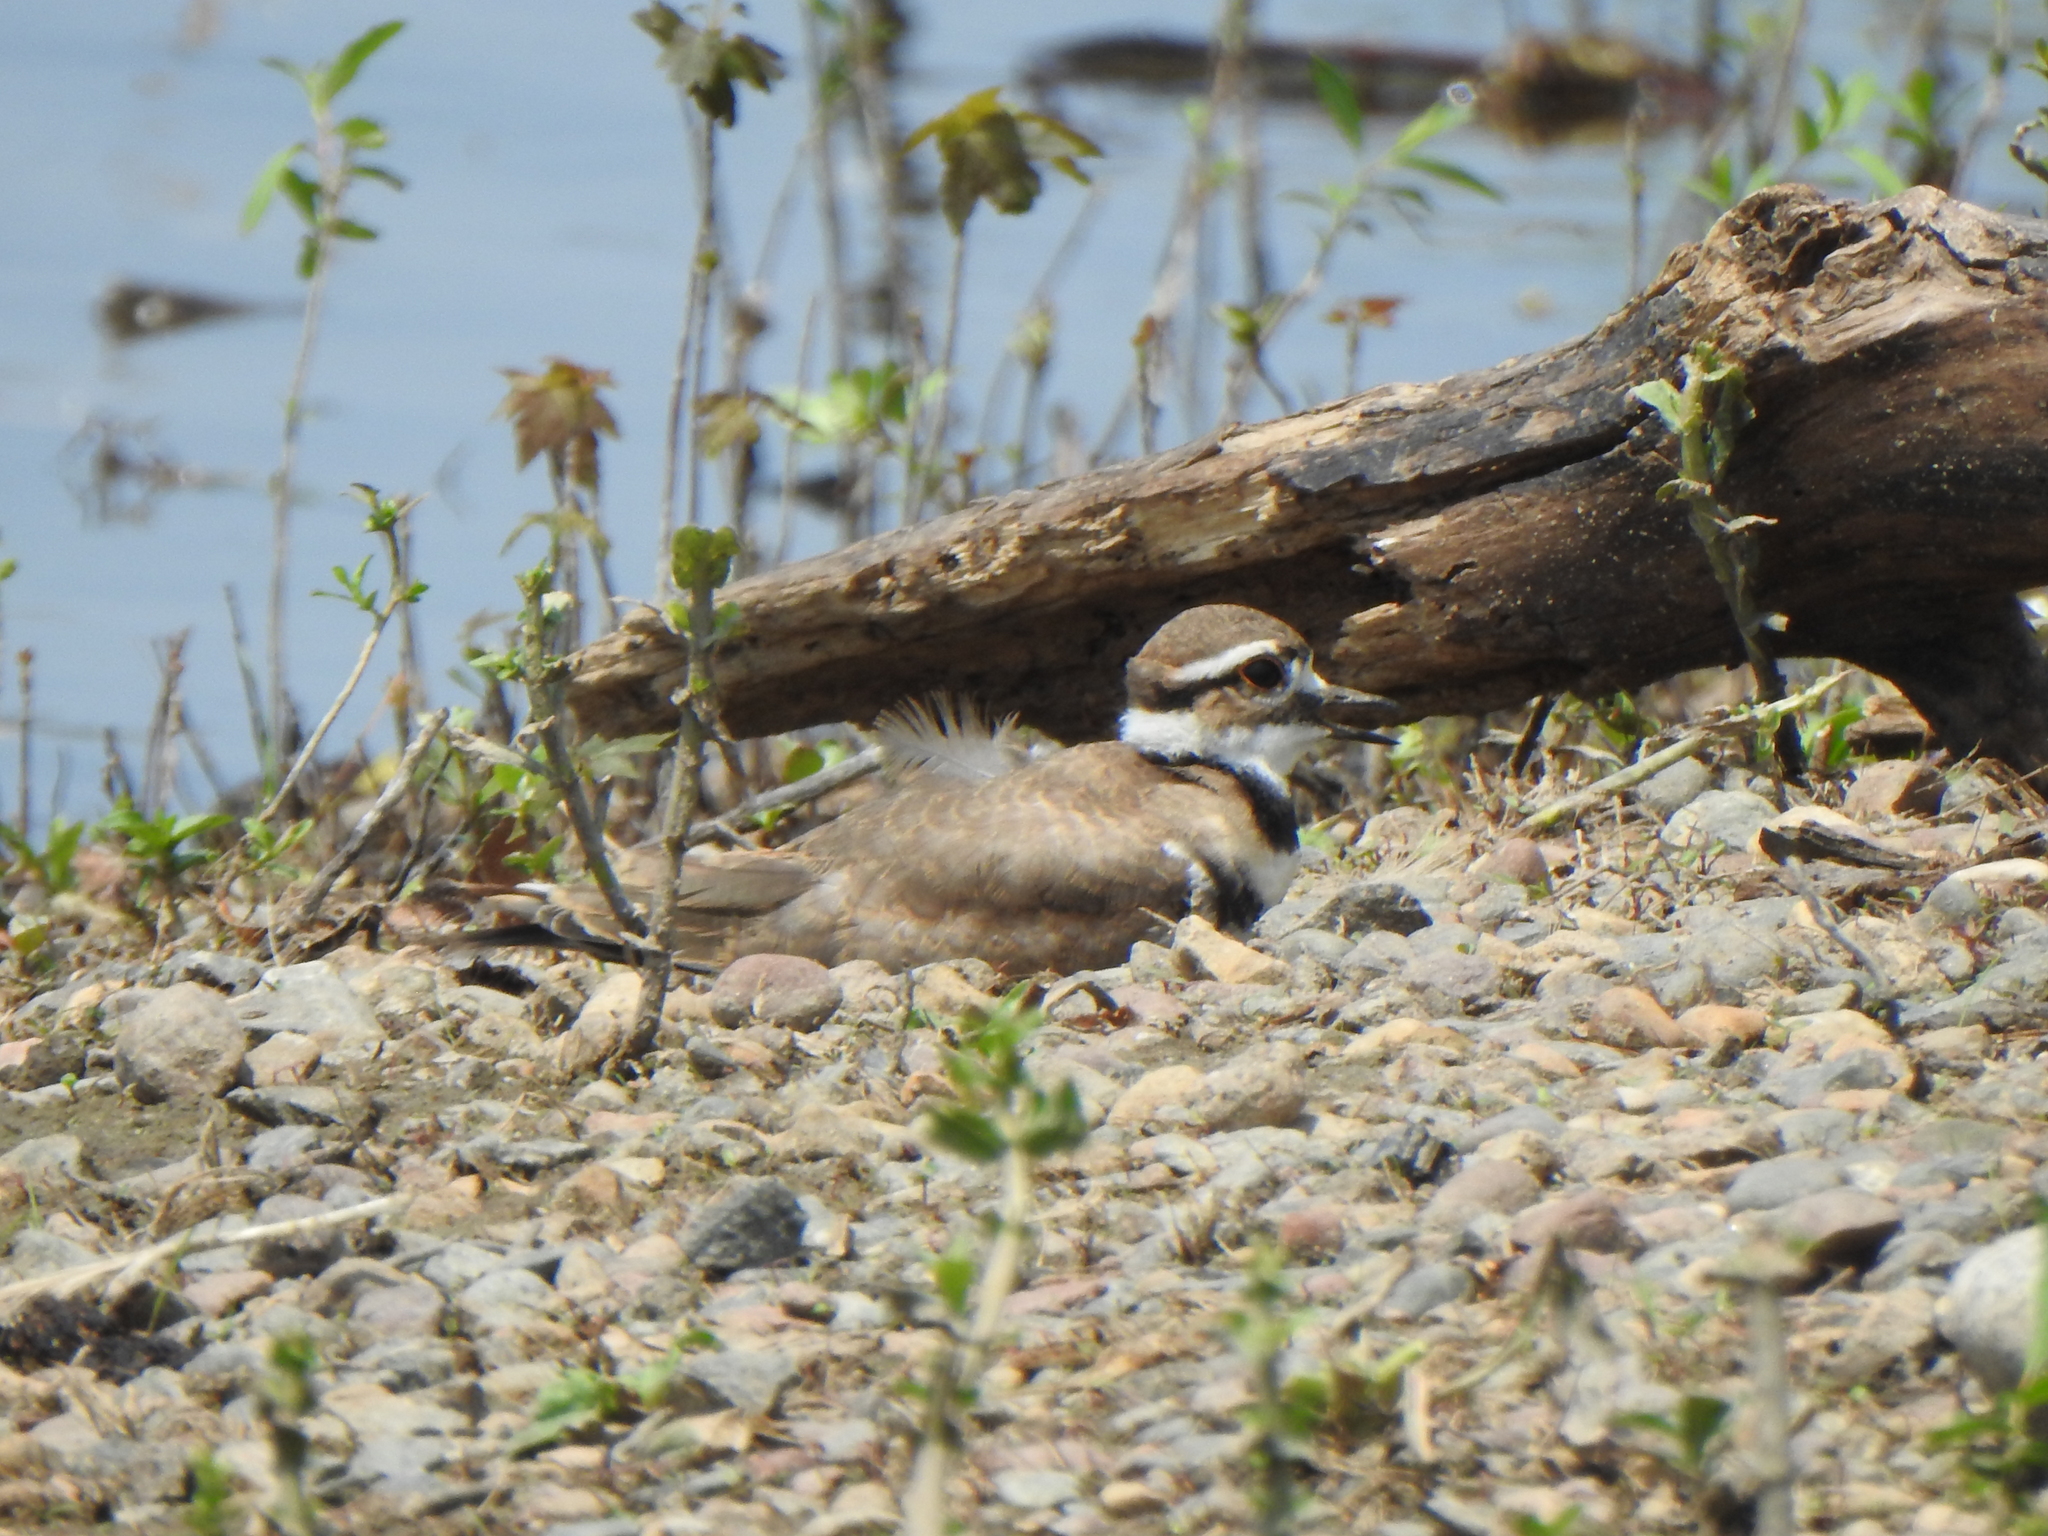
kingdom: Animalia
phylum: Chordata
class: Aves
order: Charadriiformes
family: Charadriidae
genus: Charadrius
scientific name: Charadrius vociferus
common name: Killdeer
